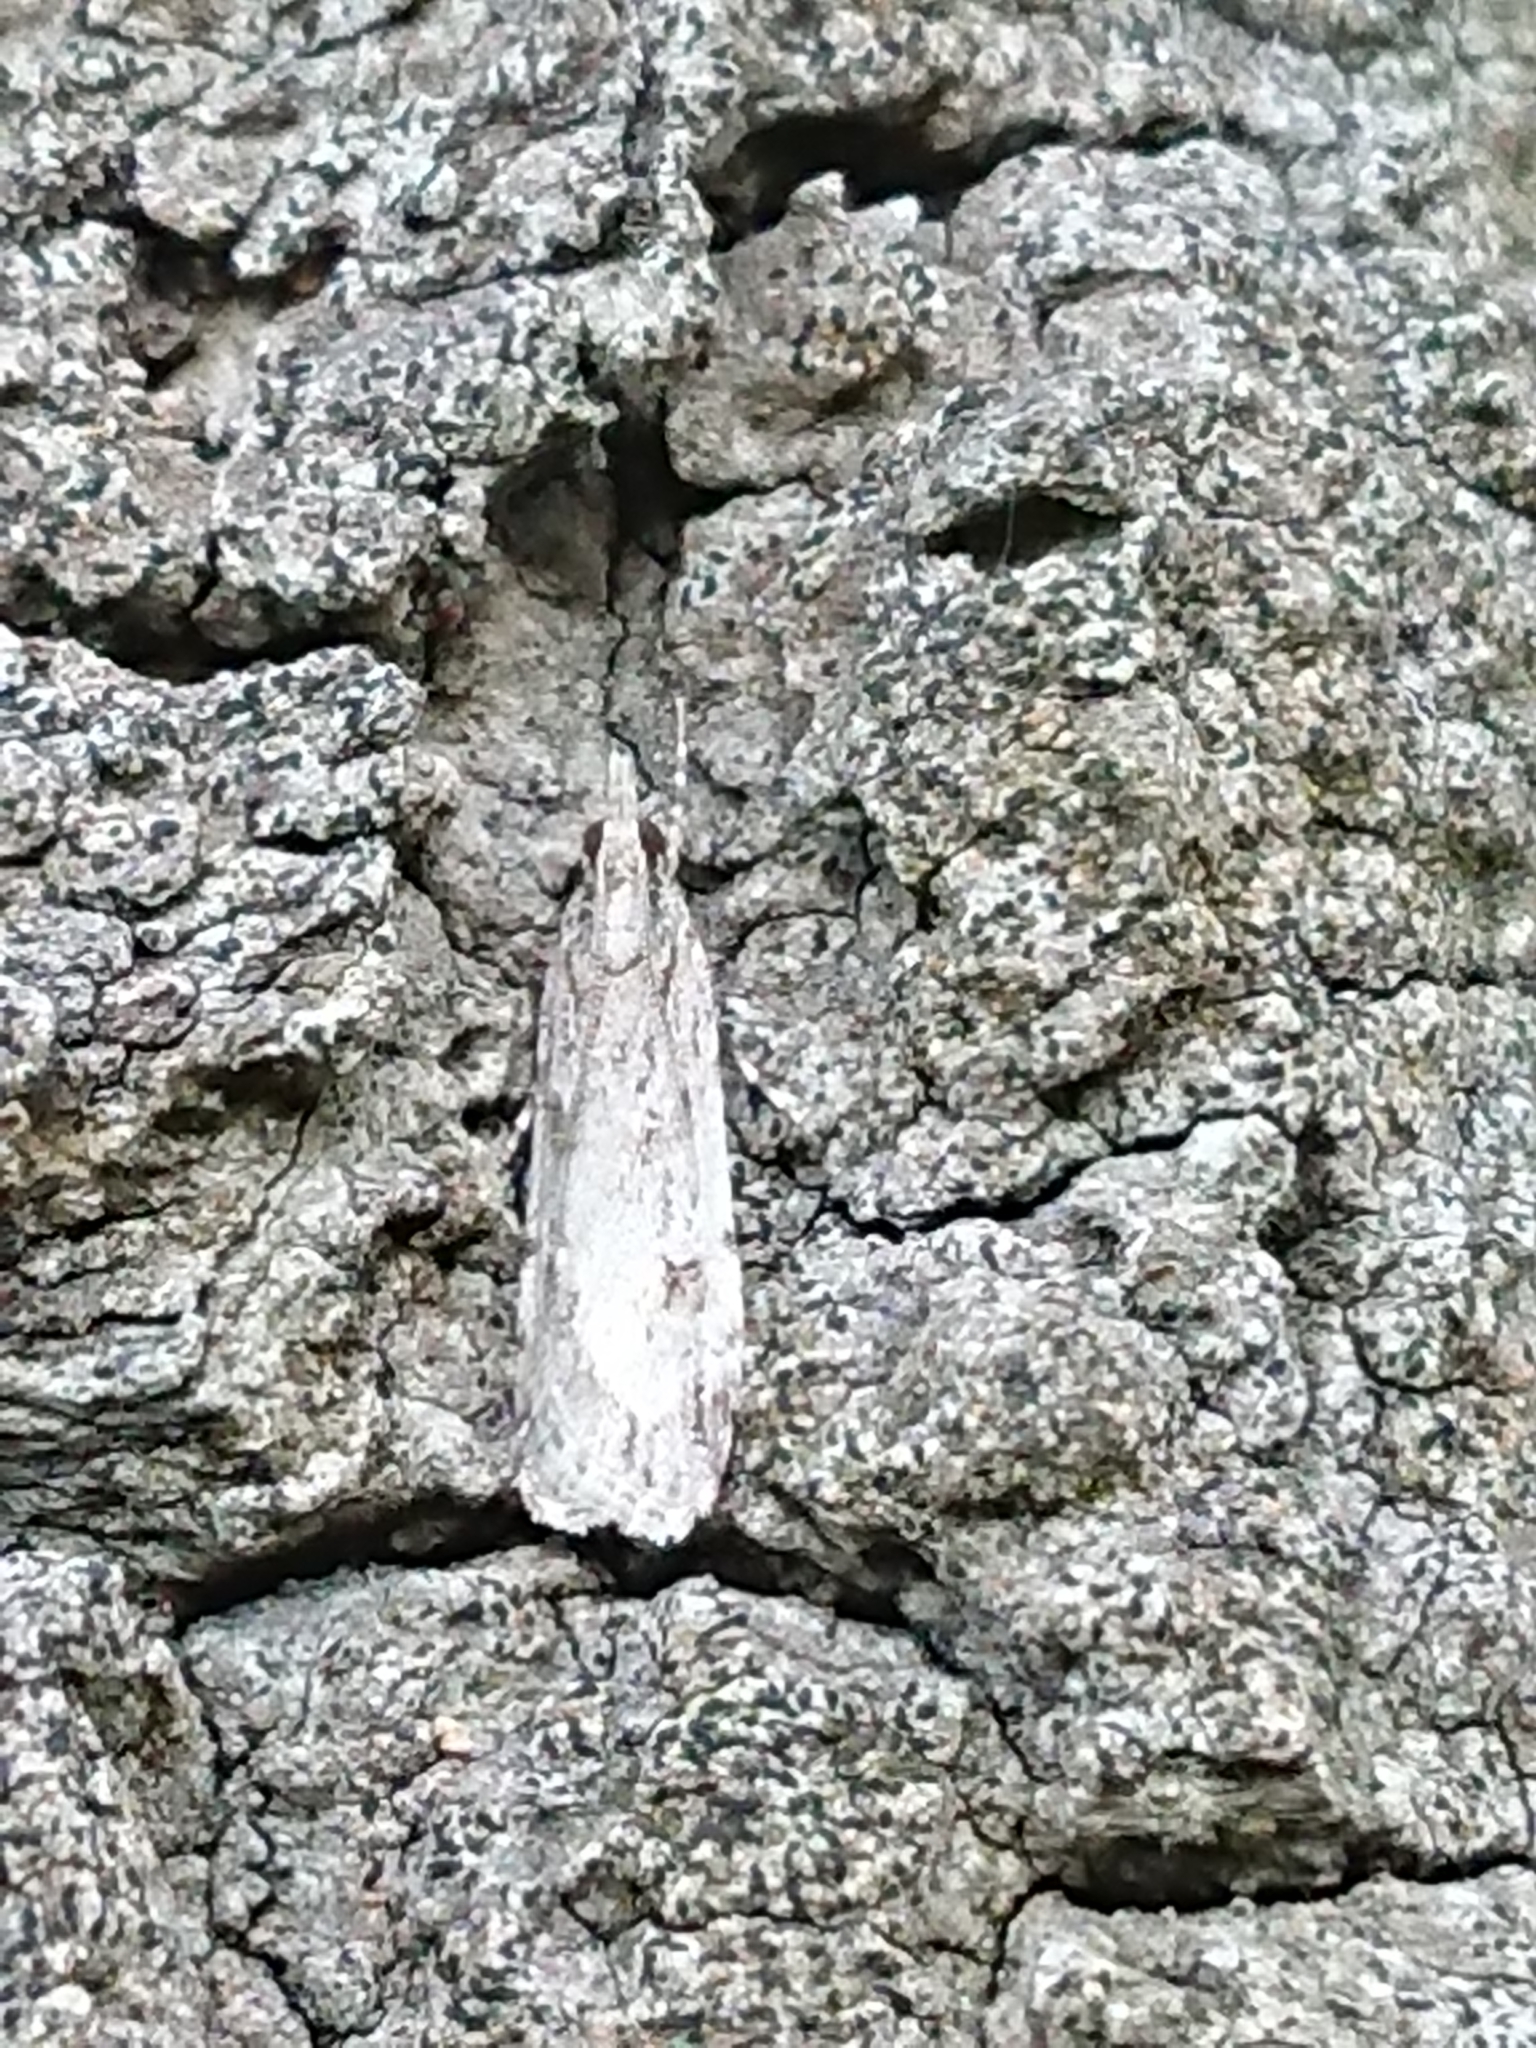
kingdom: Animalia
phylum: Arthropoda
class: Insecta
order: Lepidoptera
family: Crambidae
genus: Scoparia
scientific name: Scoparia chalicodes
